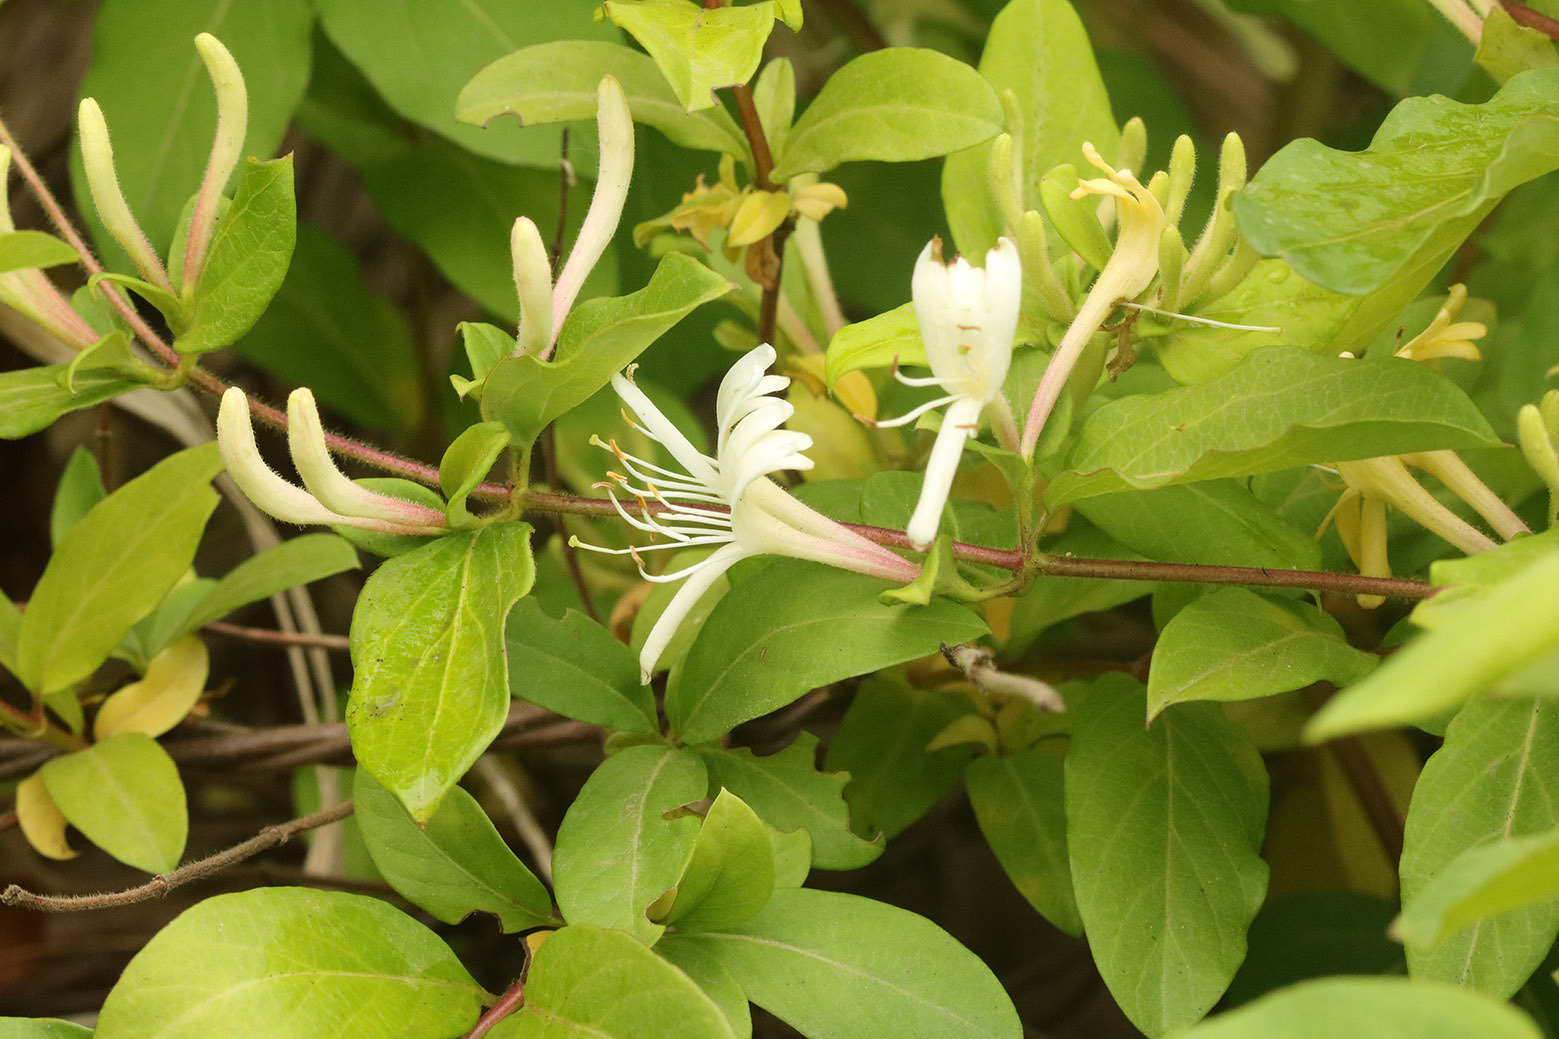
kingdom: Plantae
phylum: Tracheophyta
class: Magnoliopsida
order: Dipsacales
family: Caprifoliaceae
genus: Lonicera
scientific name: Lonicera japonica
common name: Japanese honeysuckle
